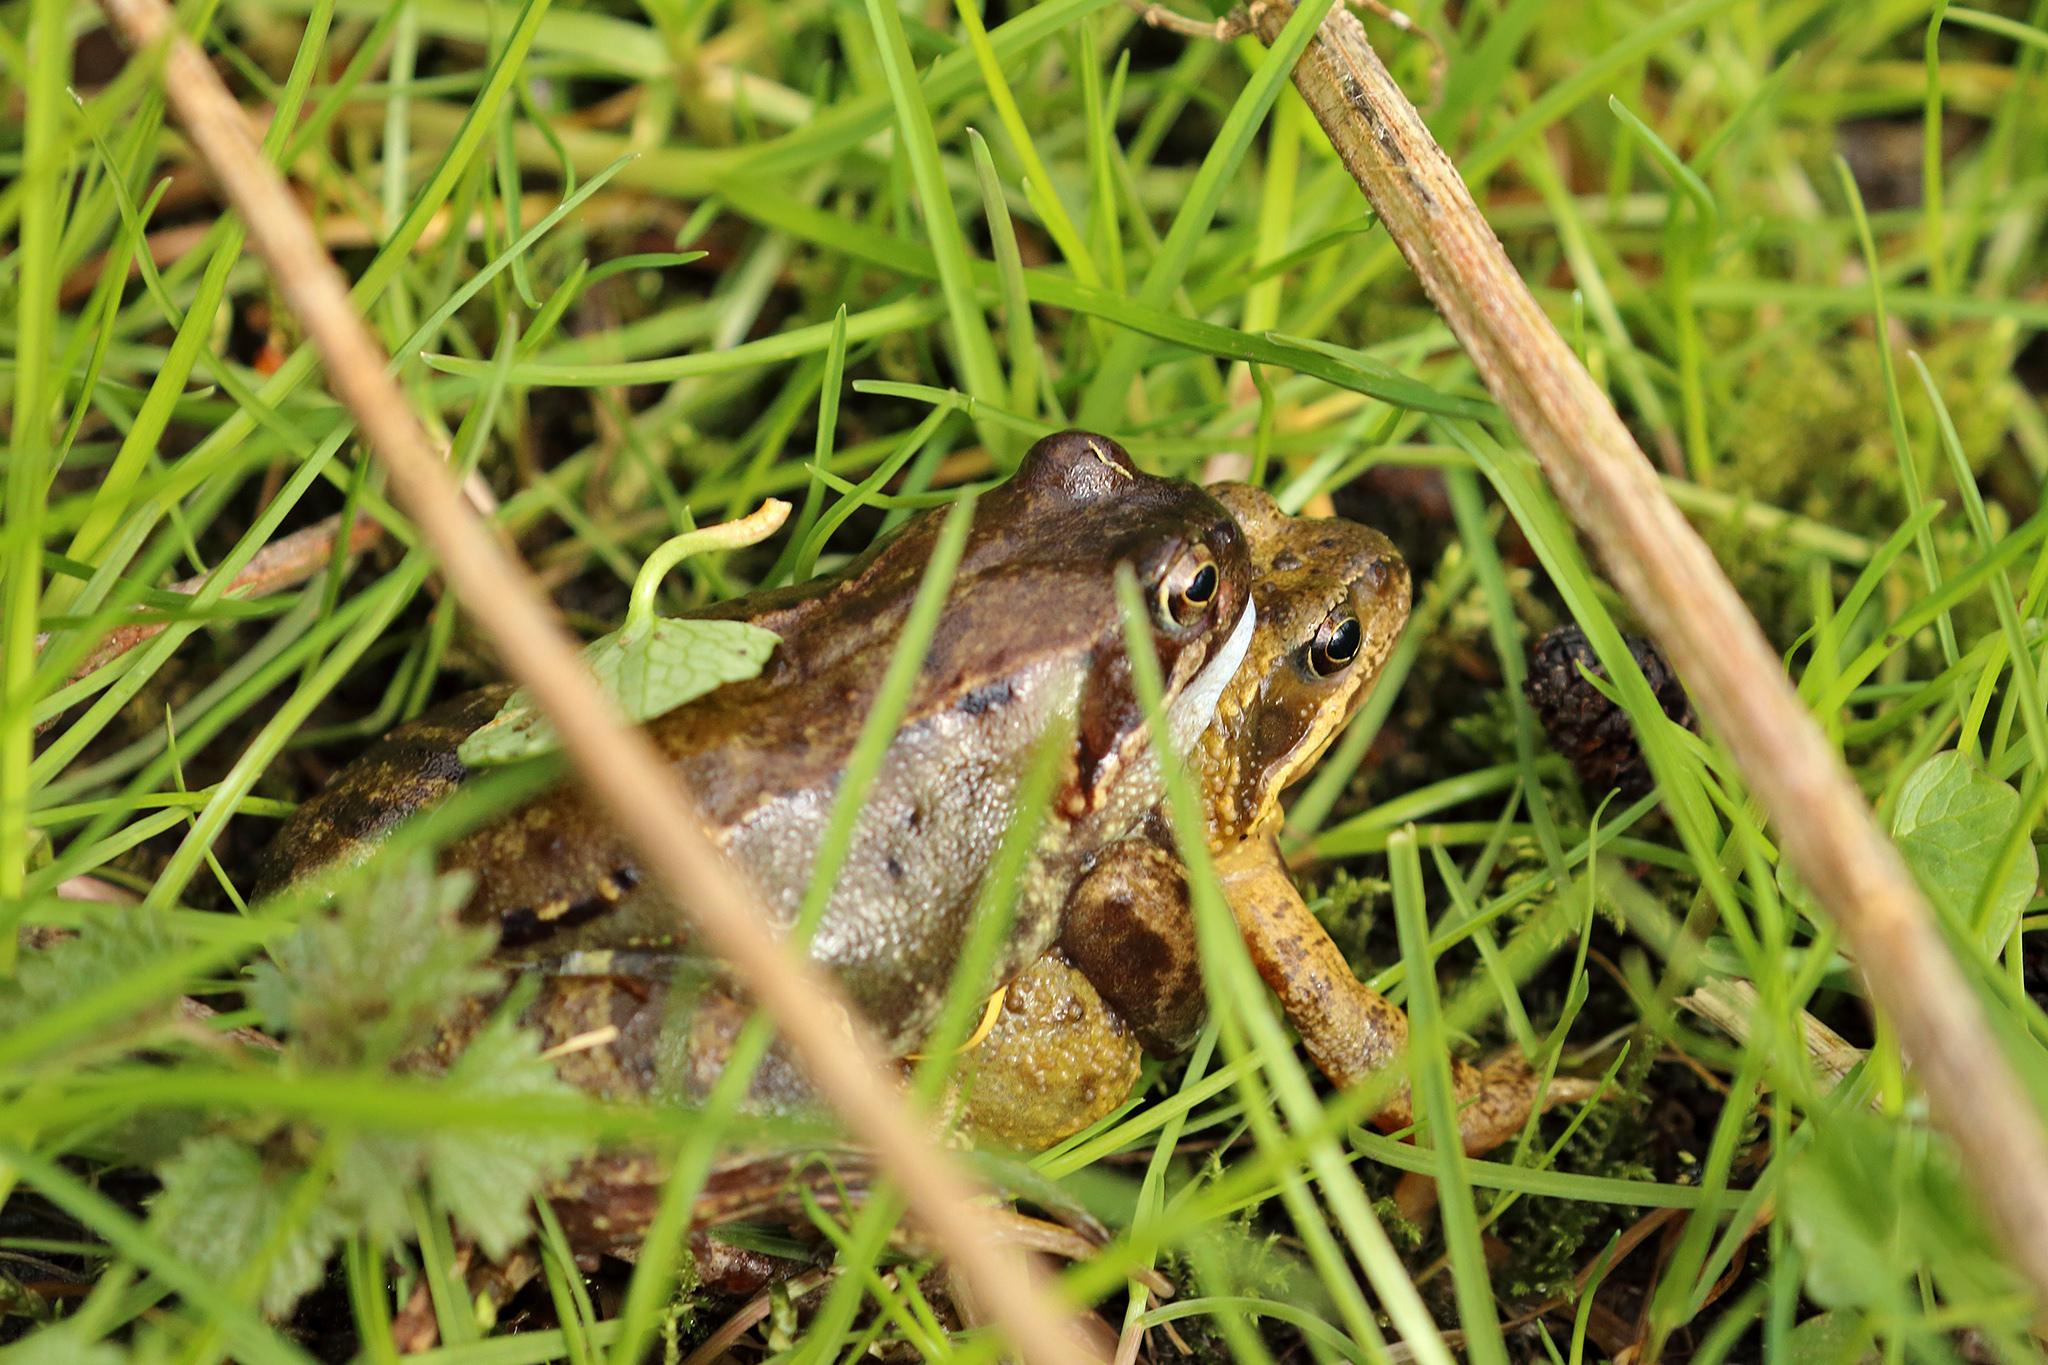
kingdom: Animalia
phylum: Chordata
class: Amphibia
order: Anura
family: Ranidae
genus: Rana
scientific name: Rana temporaria
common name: Common frog
